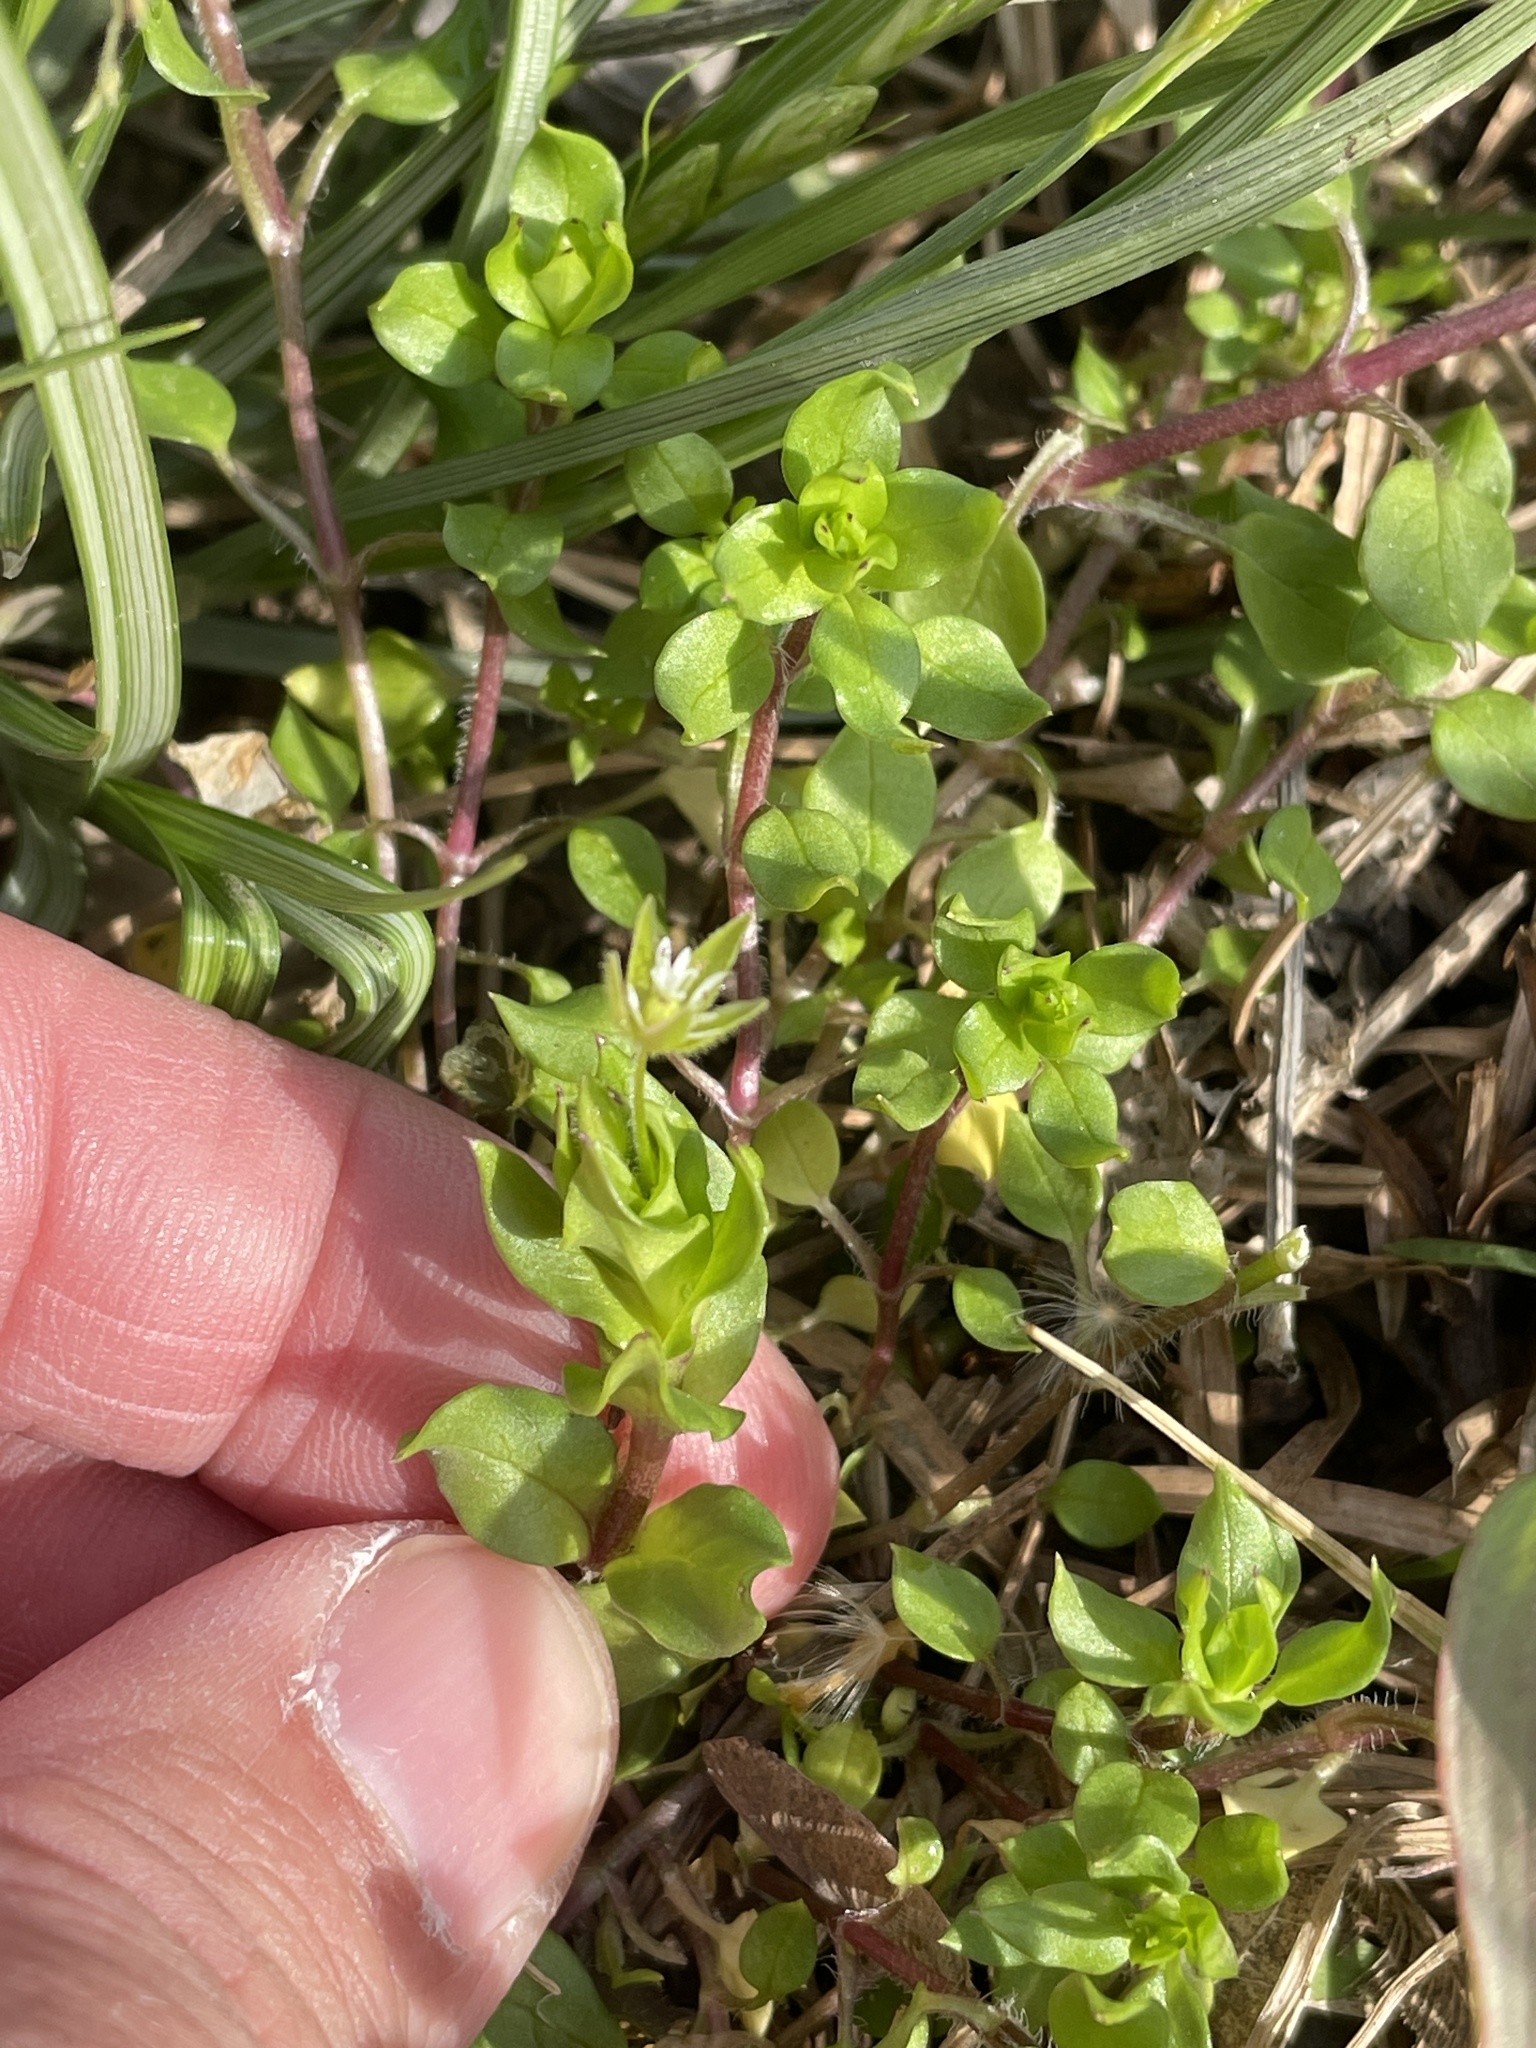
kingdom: Plantae
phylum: Tracheophyta
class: Magnoliopsida
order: Caryophyllales
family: Caryophyllaceae
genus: Stellaria
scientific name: Stellaria media
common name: Common chickweed
